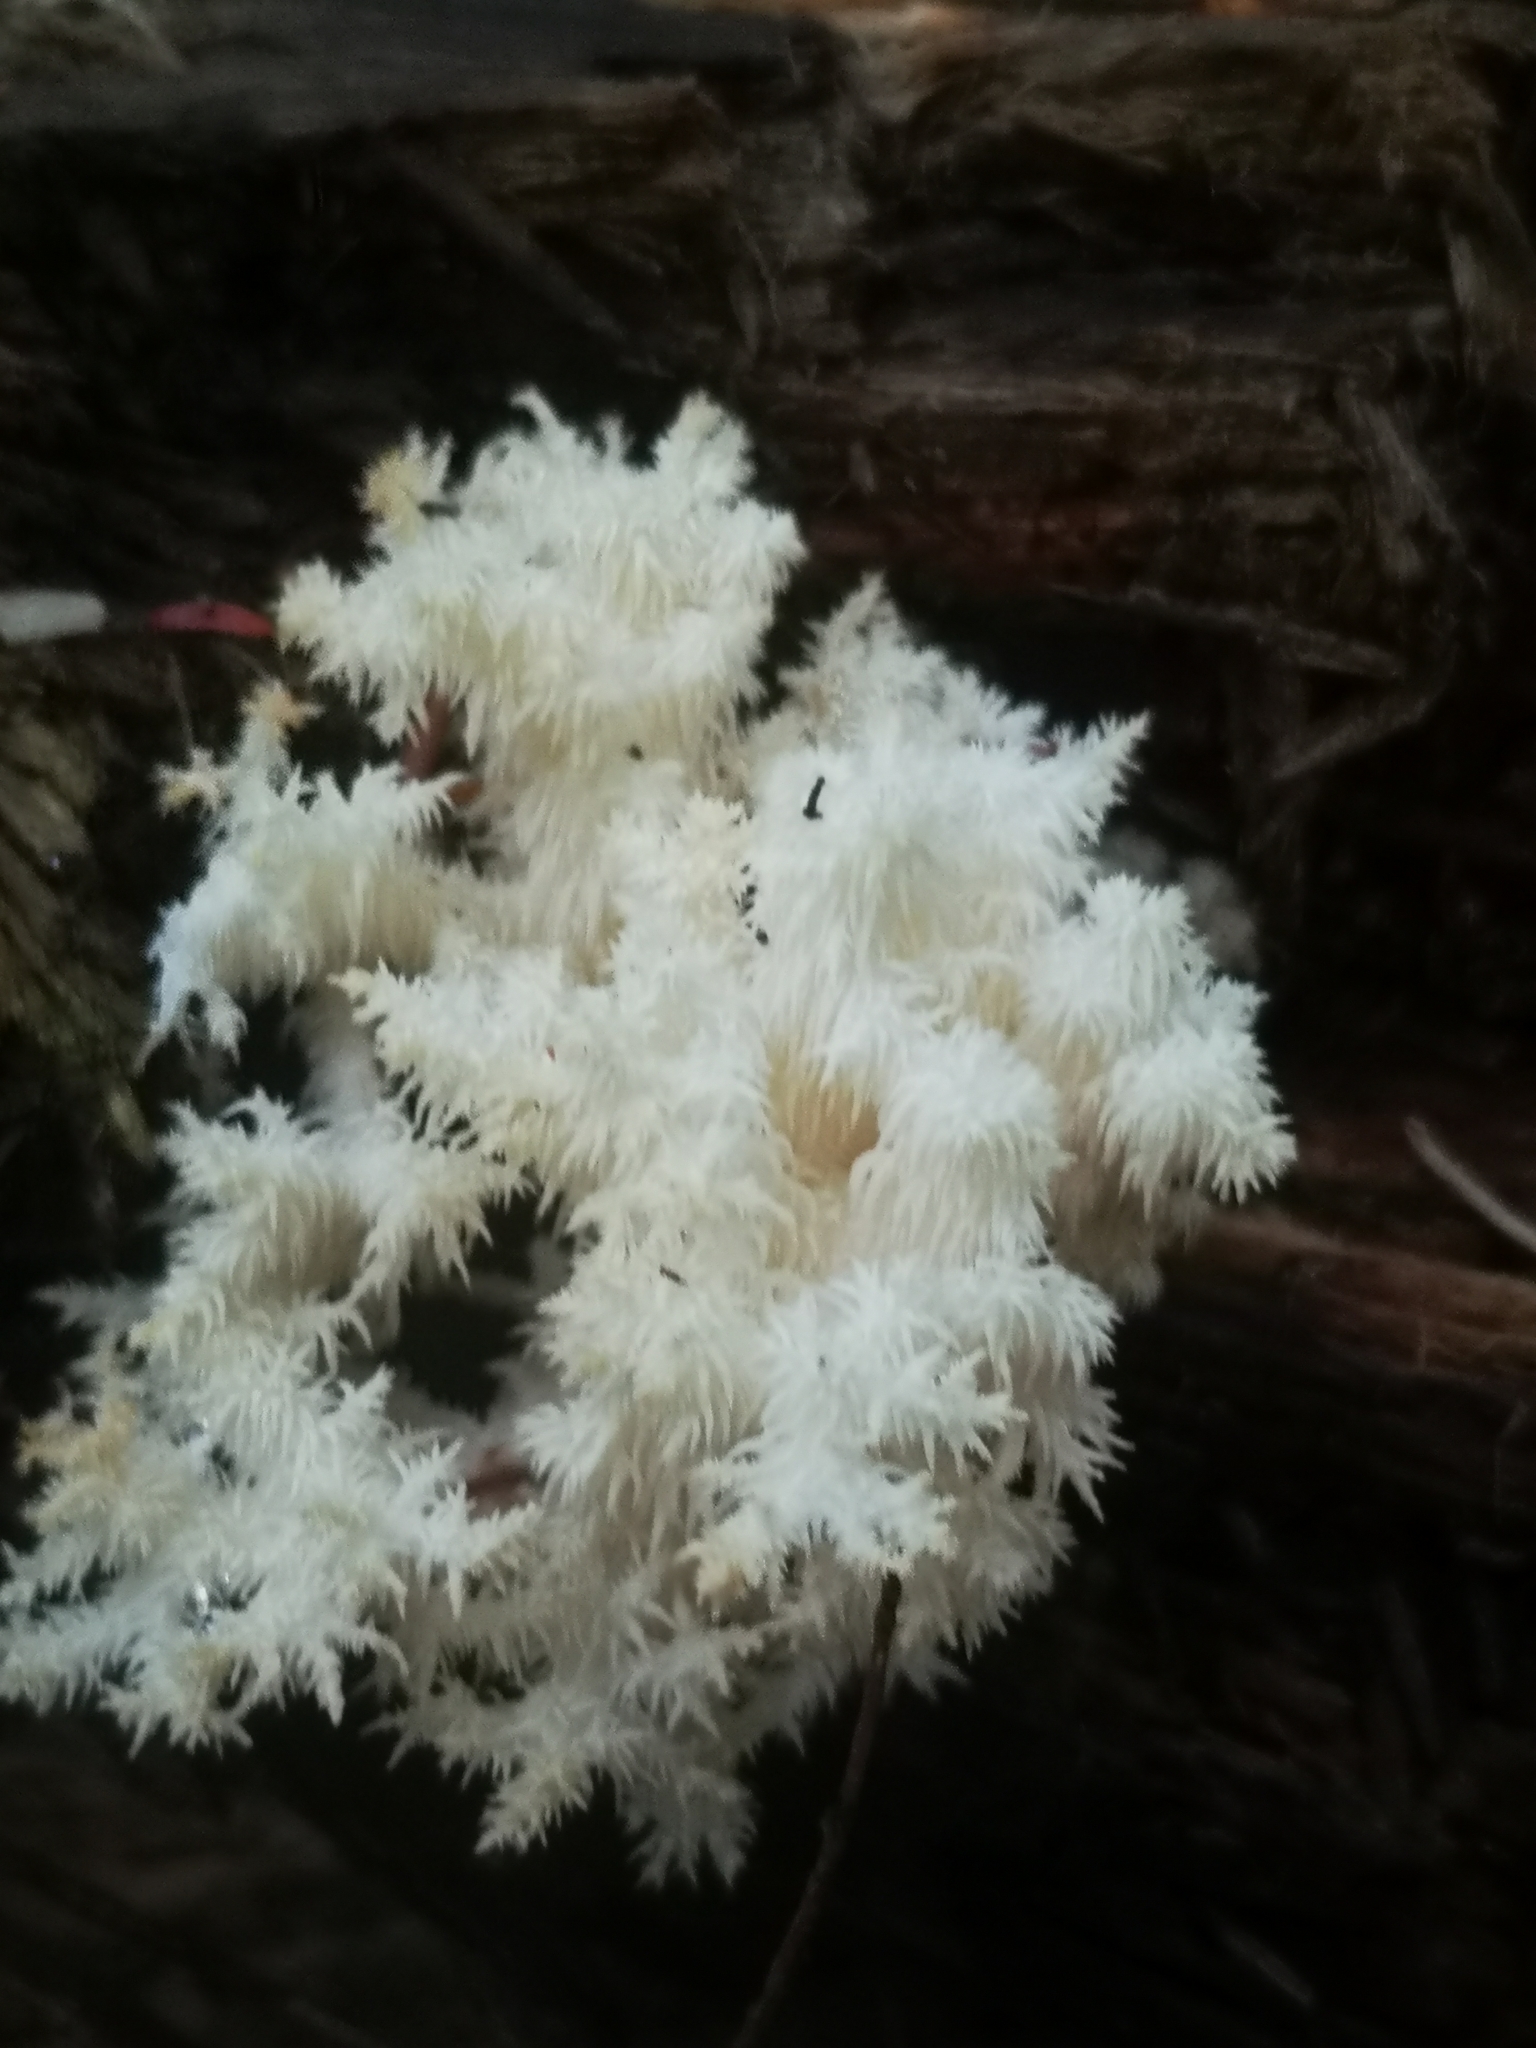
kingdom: Fungi
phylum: Basidiomycota
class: Agaricomycetes
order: Russulales
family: Hericiaceae
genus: Hericium
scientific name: Hericium coralloides
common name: Coral tooth
